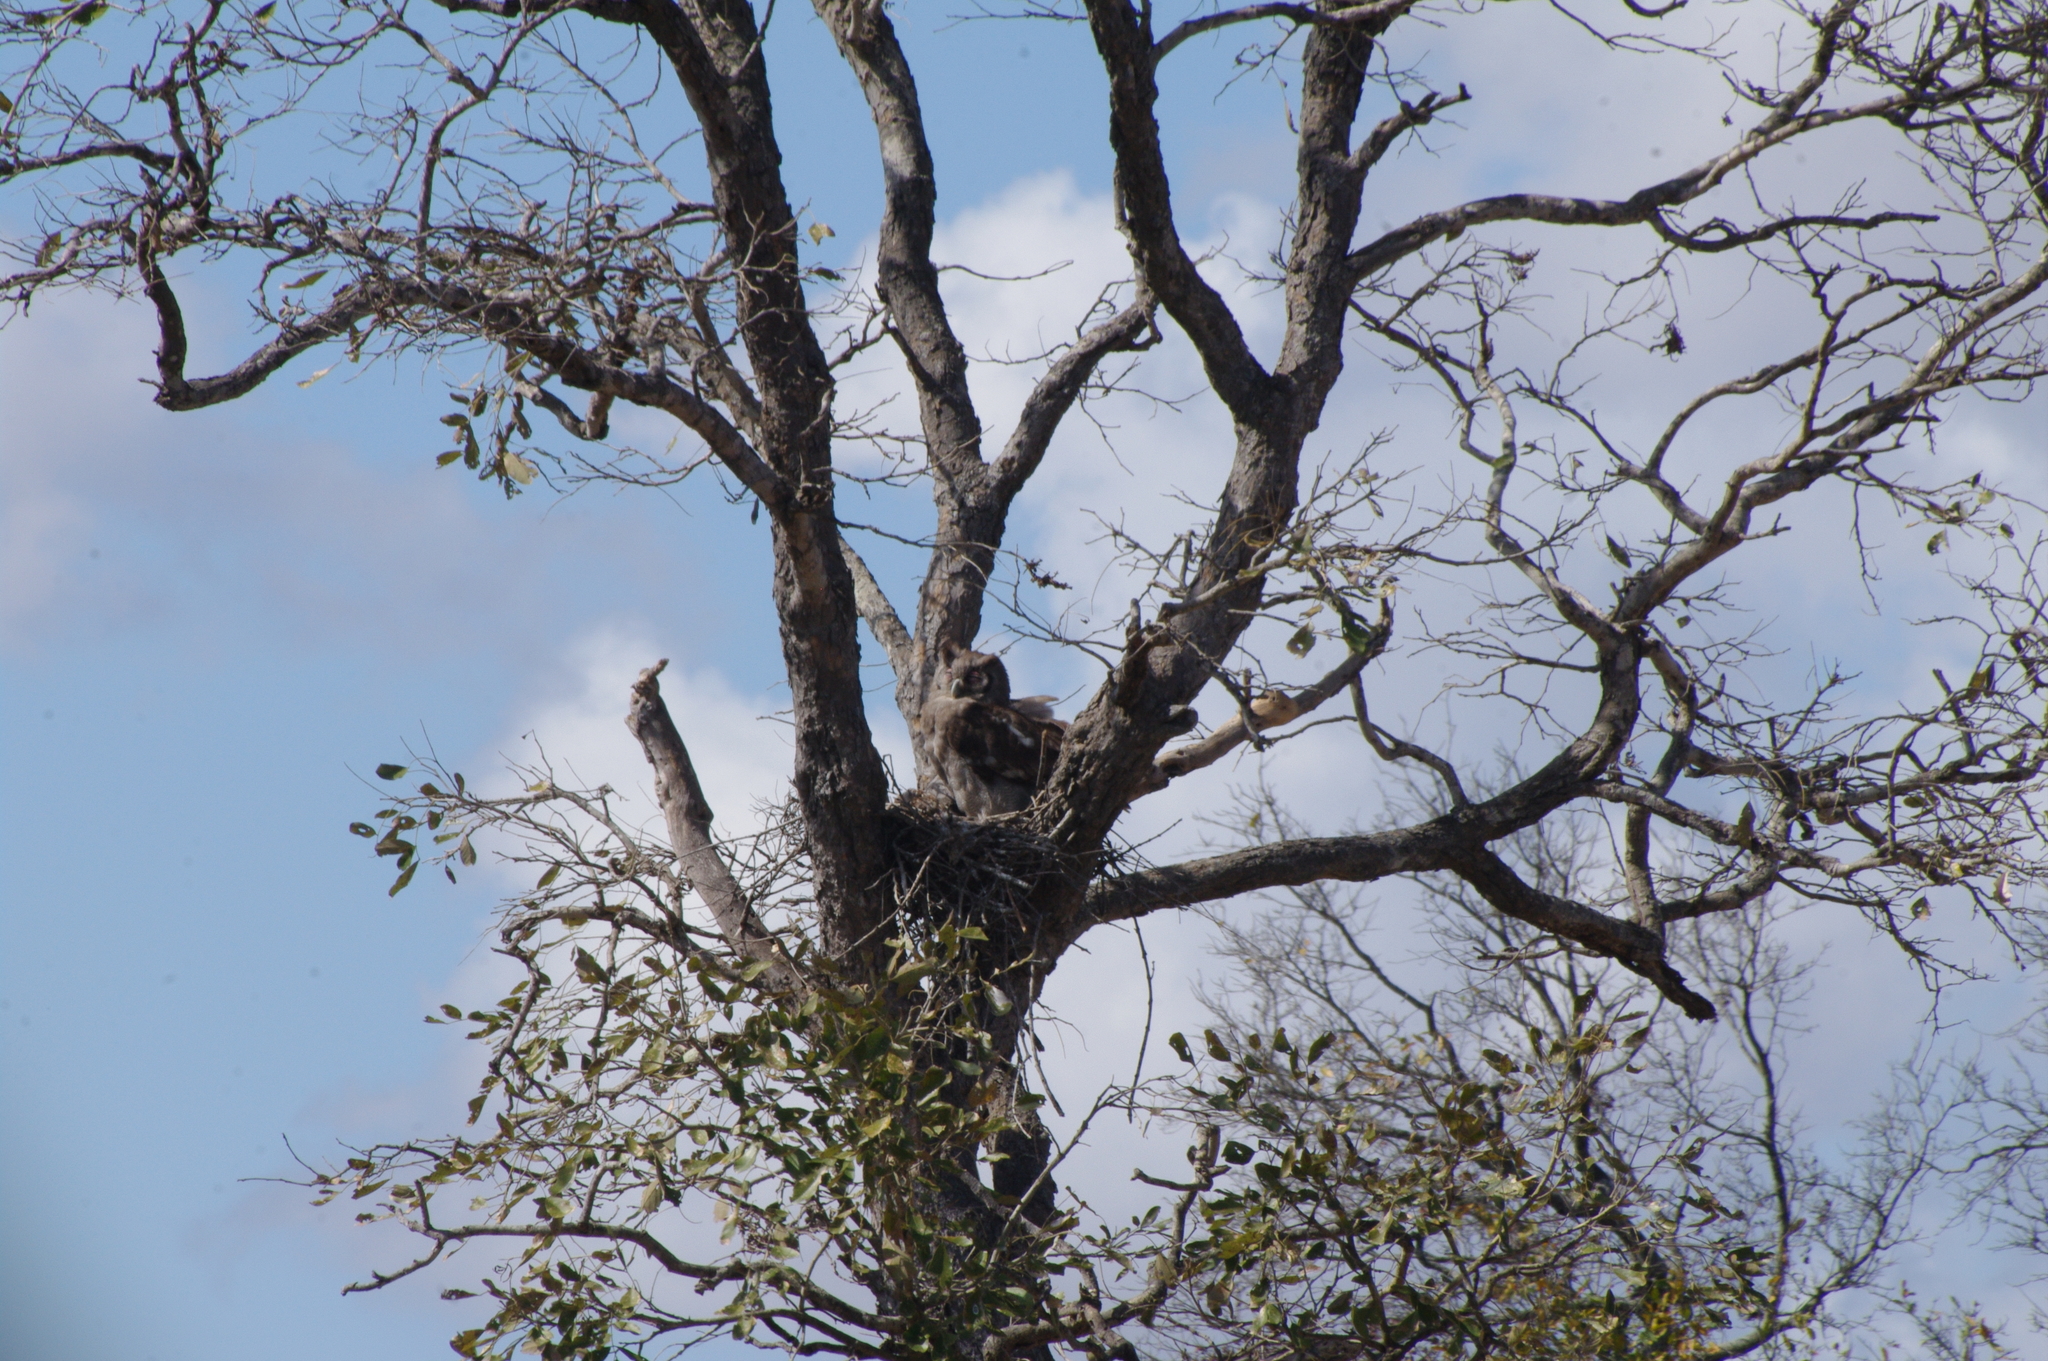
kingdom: Animalia
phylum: Chordata
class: Aves
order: Strigiformes
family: Strigidae
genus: Bubo
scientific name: Bubo lacteus
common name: Verreaux's eagle-owl
